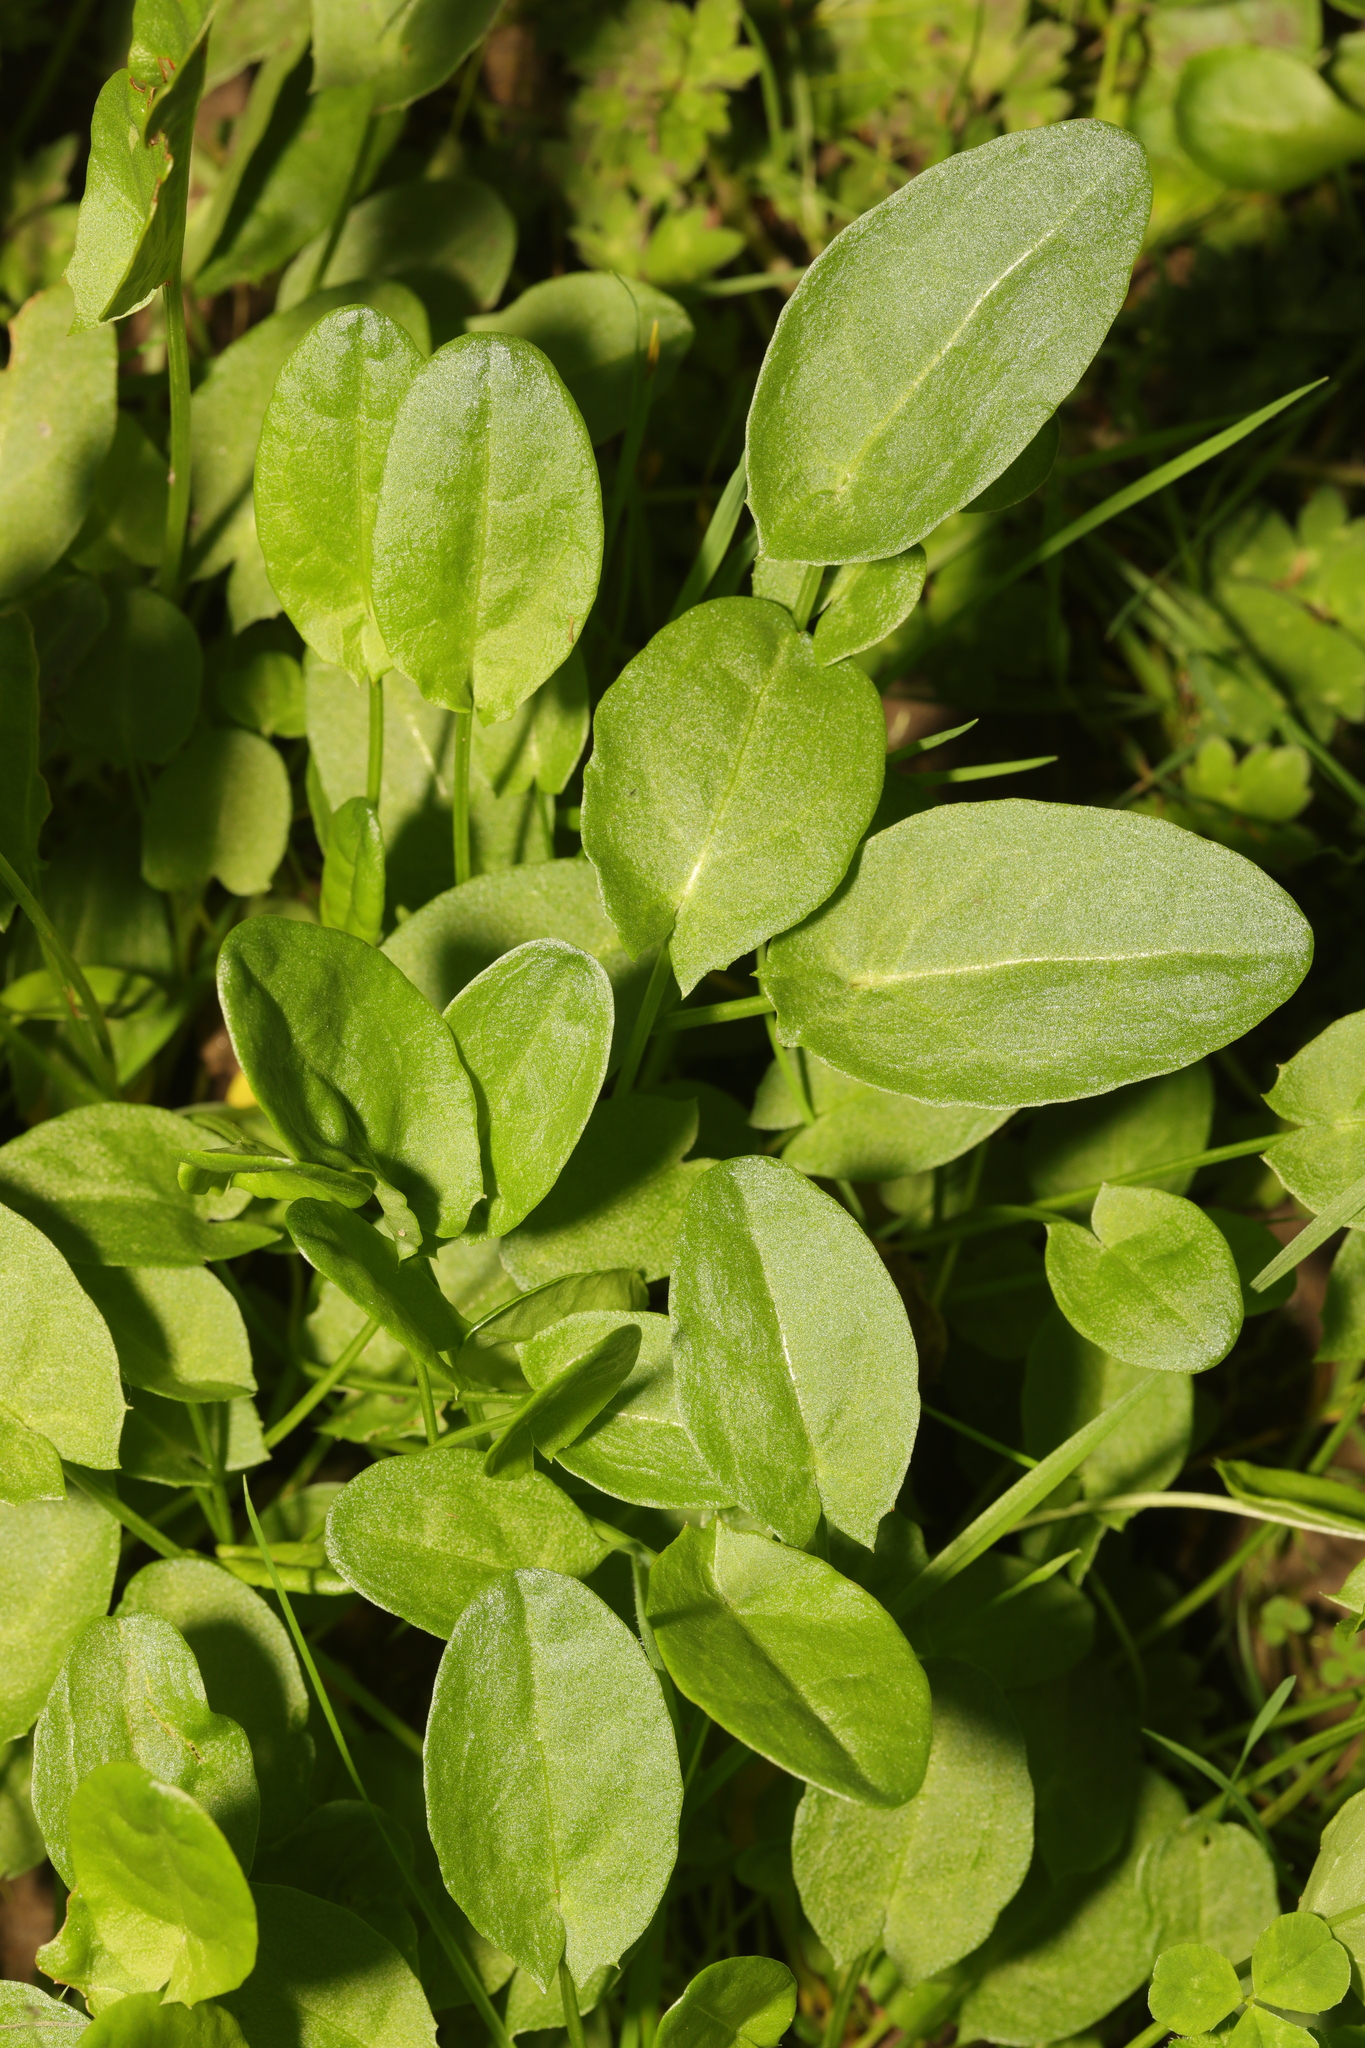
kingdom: Plantae
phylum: Tracheophyta
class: Magnoliopsida
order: Caryophyllales
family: Polygonaceae
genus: Rumex
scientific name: Rumex acetosa
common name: Garden sorrel
